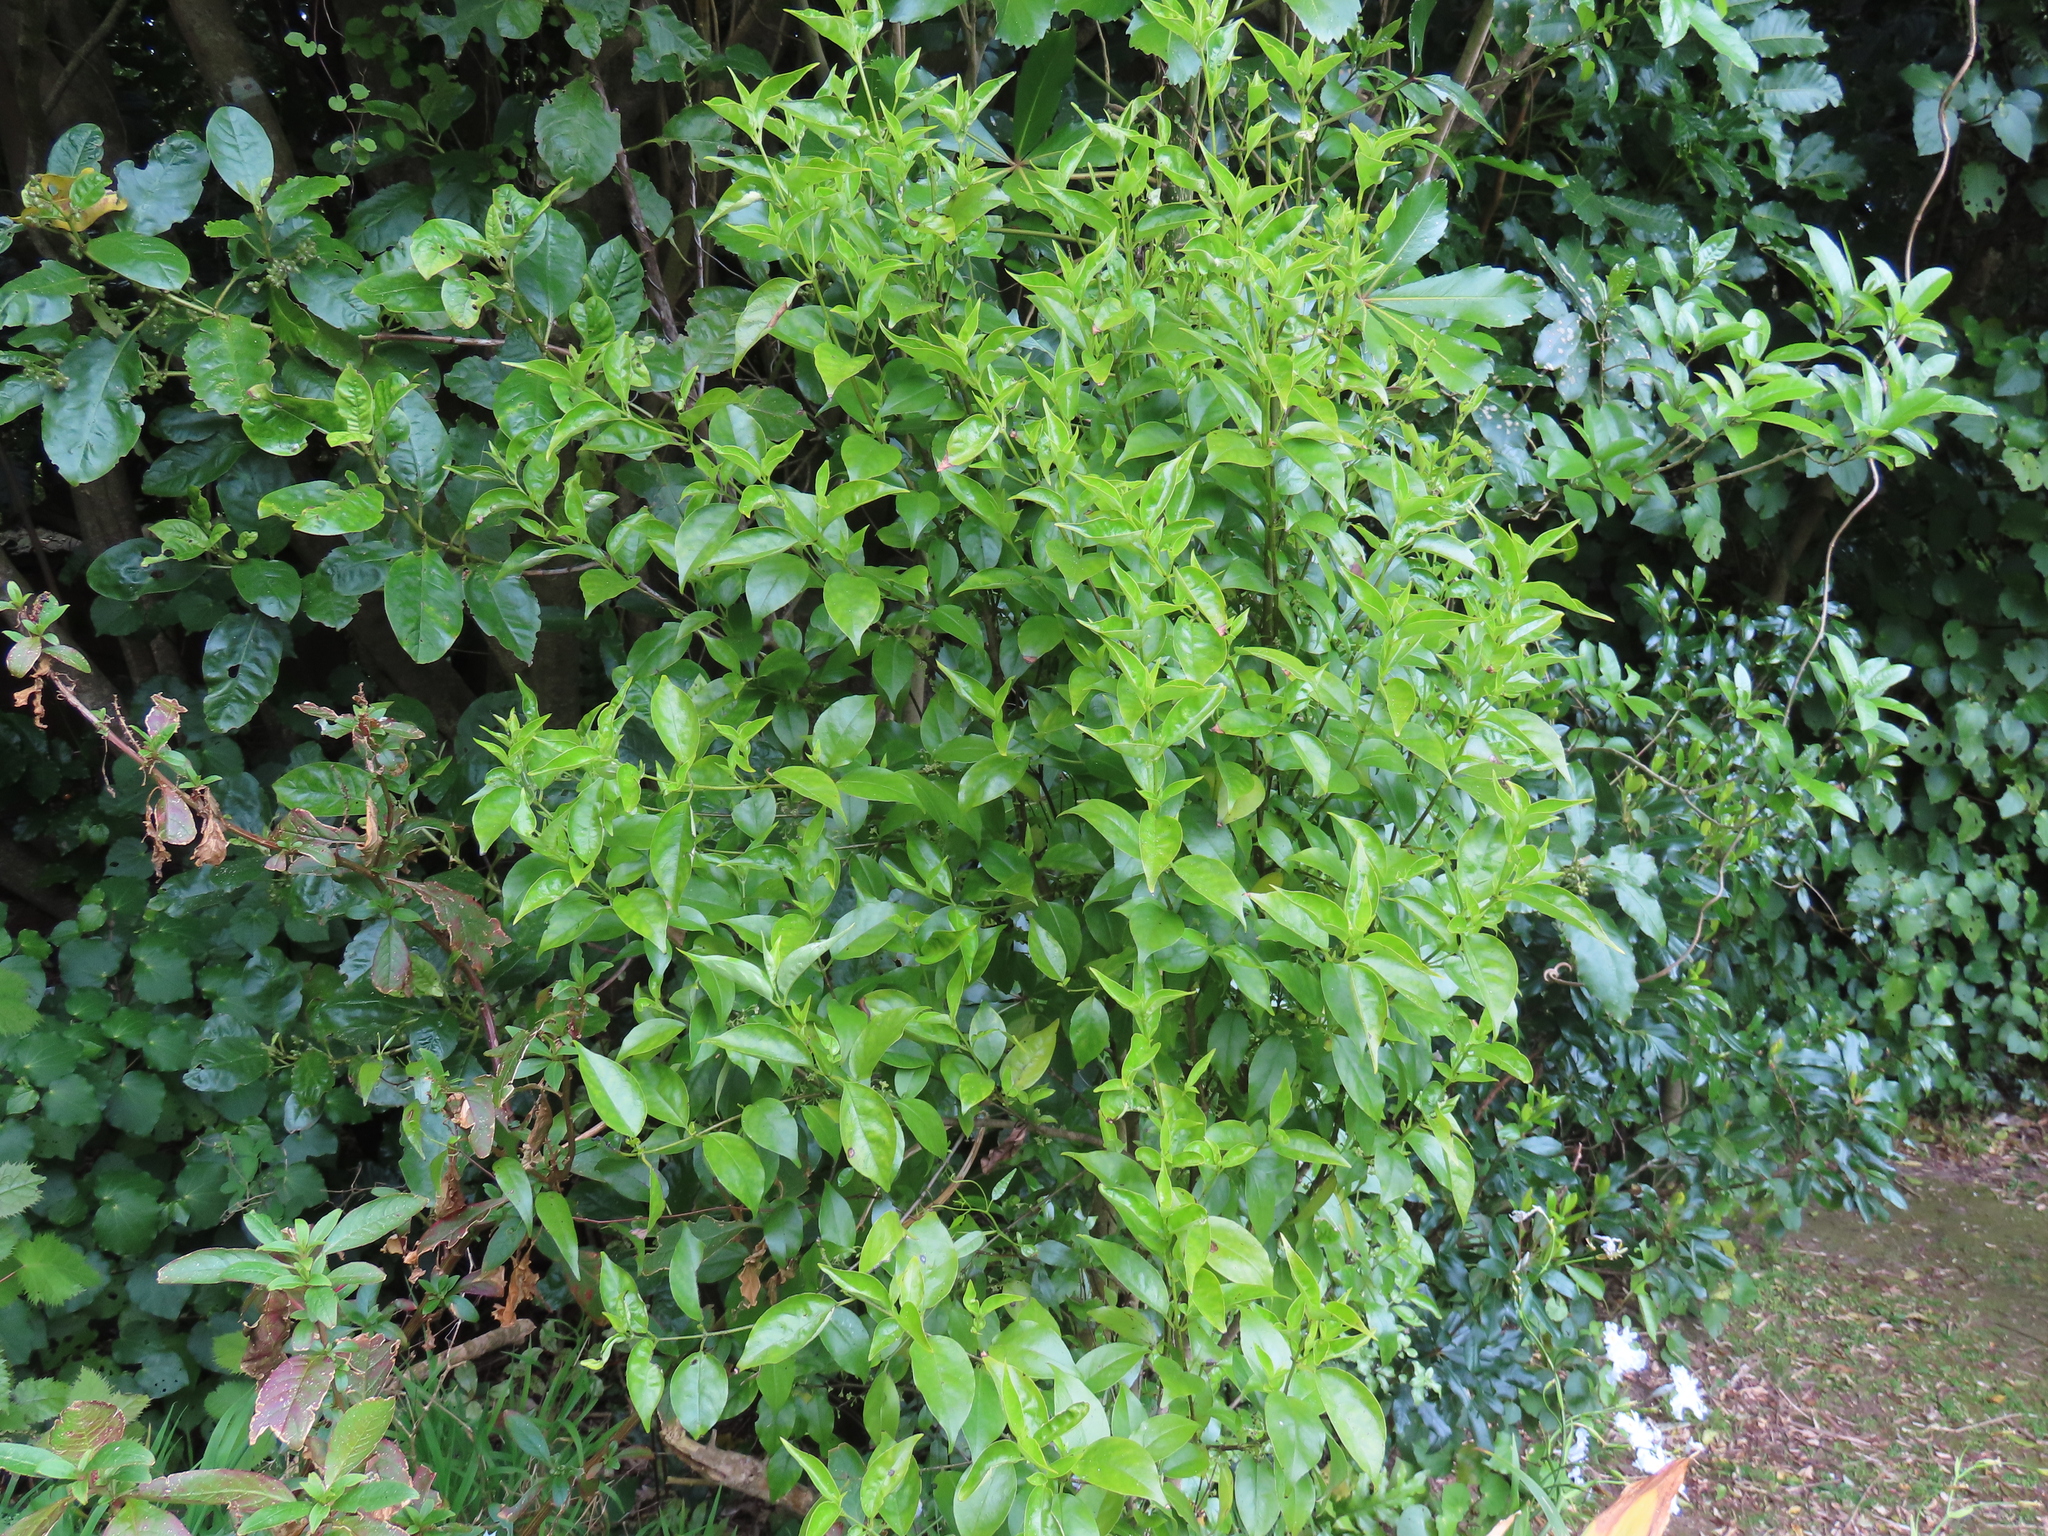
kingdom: Plantae
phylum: Tracheophyta
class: Magnoliopsida
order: Gentianales
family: Loganiaceae
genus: Geniostoma
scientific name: Geniostoma ligustrifolium
